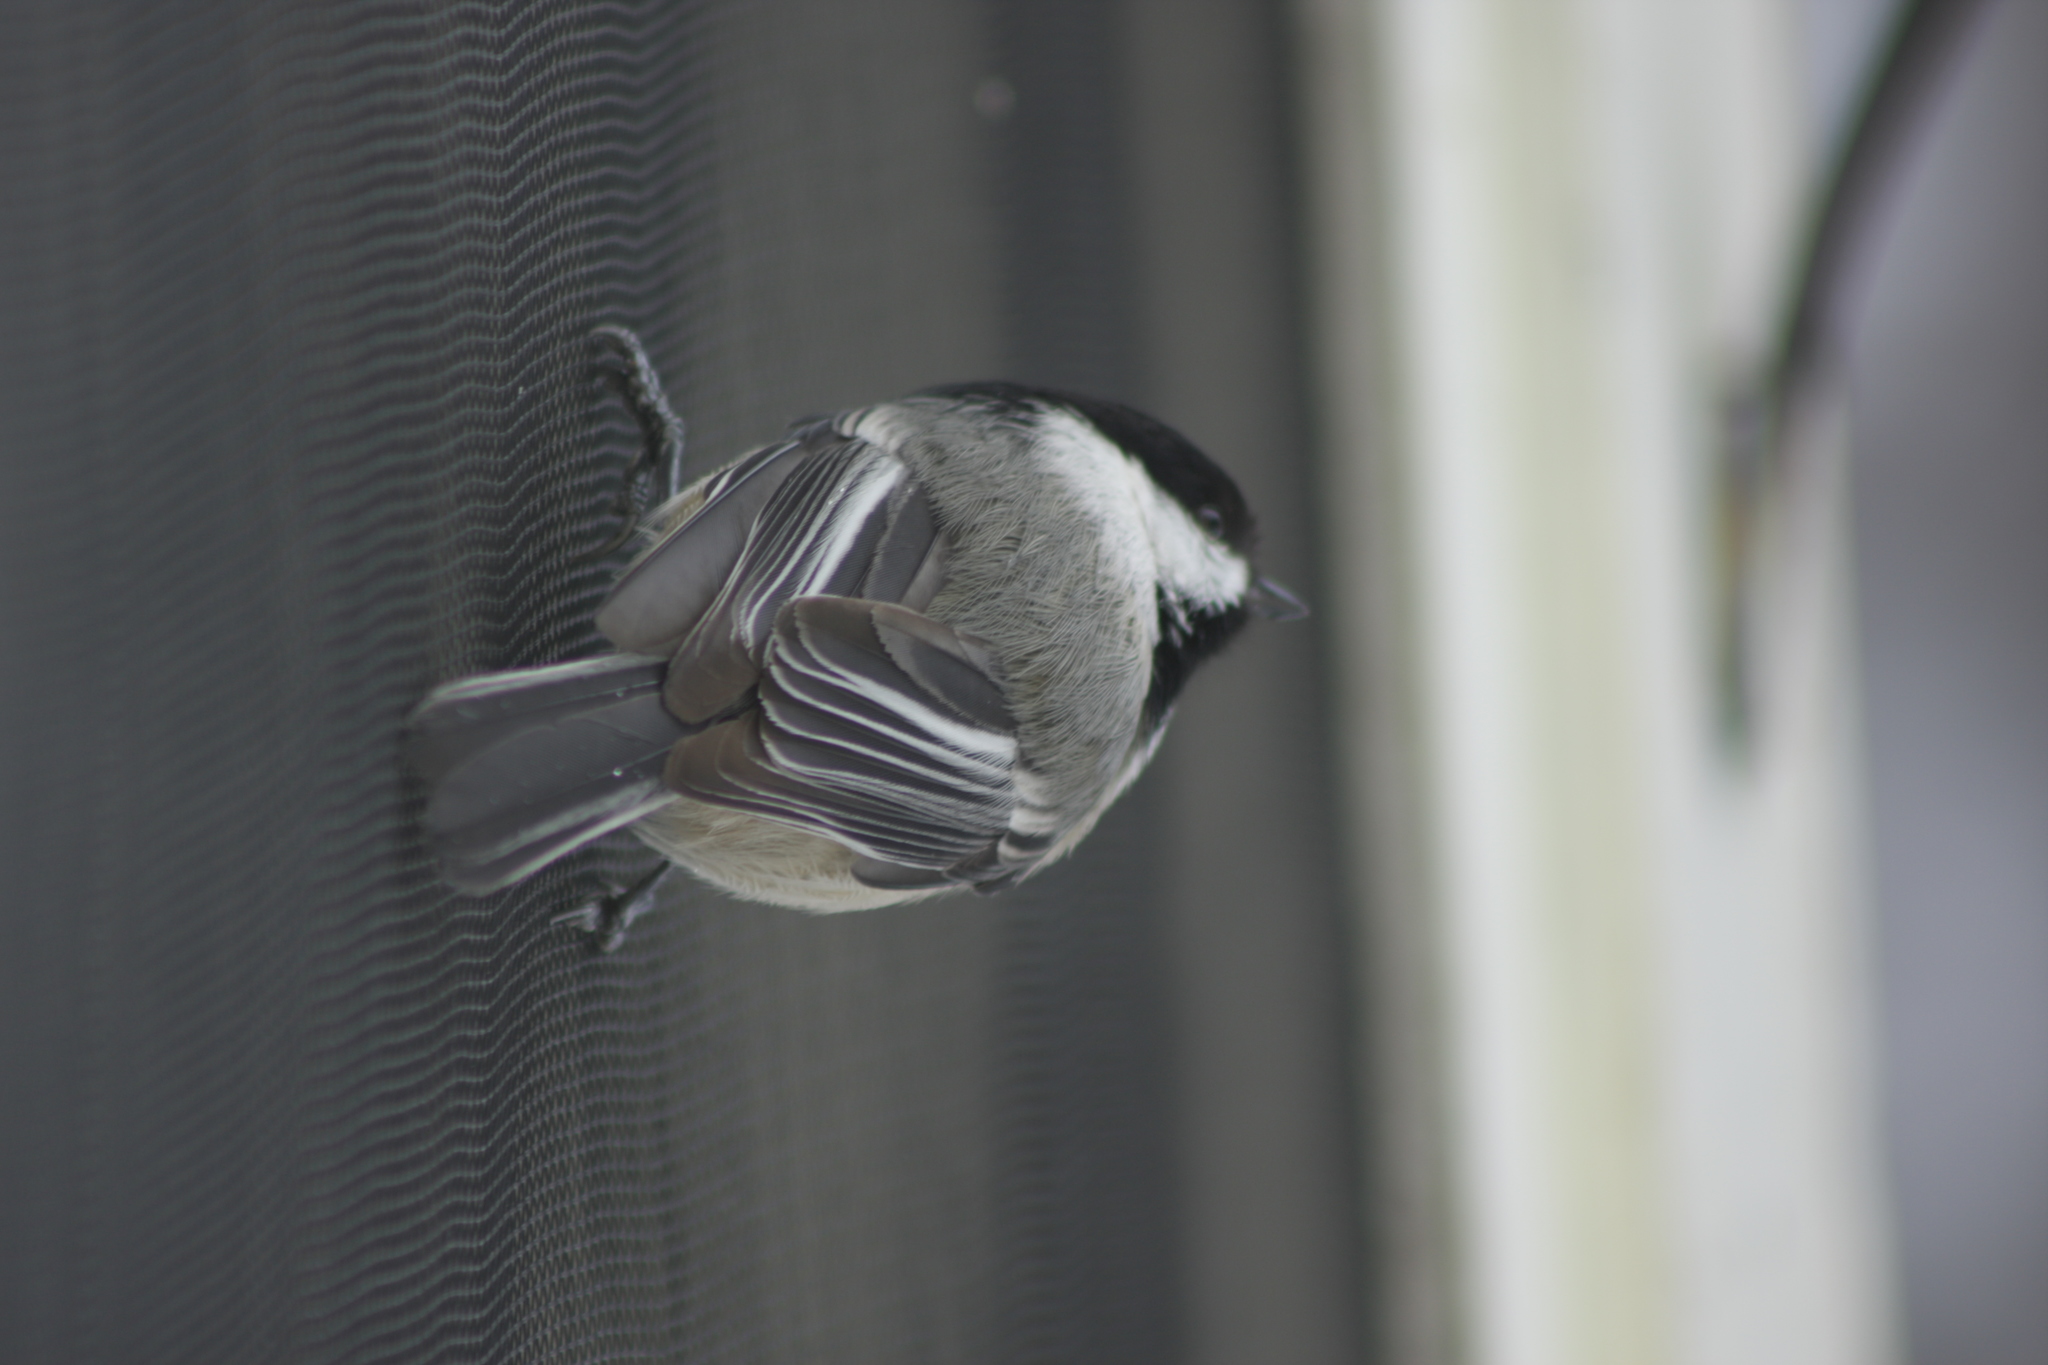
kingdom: Animalia
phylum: Chordata
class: Aves
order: Passeriformes
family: Paridae
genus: Poecile
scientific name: Poecile atricapillus
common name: Black-capped chickadee
